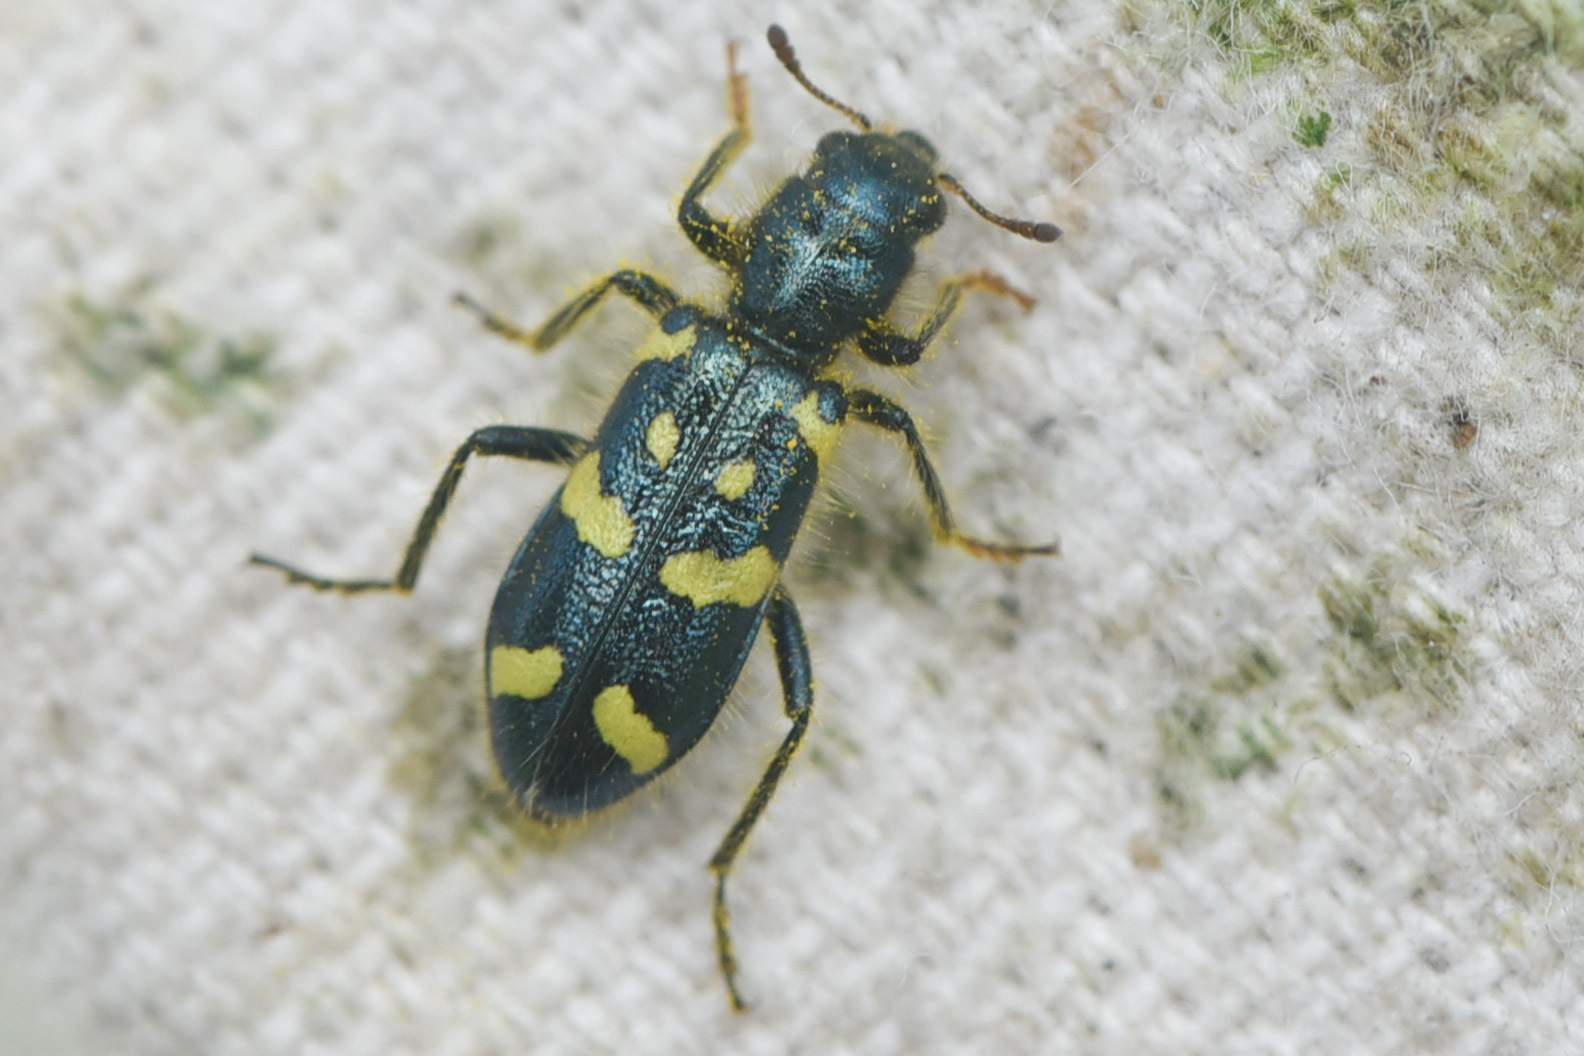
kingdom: Animalia
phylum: Arthropoda
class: Insecta
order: Coleoptera
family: Cleridae
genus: Trichodes
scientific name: Trichodes ornatus
